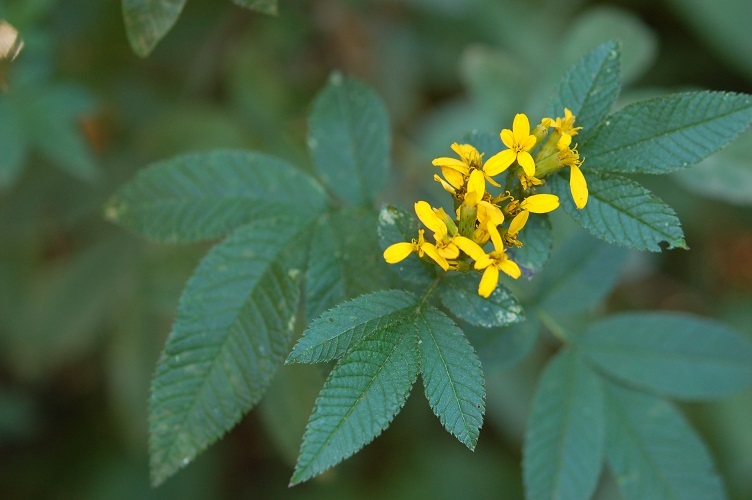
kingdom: Plantae
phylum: Tracheophyta
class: Magnoliopsida
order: Asterales
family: Asteraceae
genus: Tagetes
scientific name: Tagetes nelsonii
